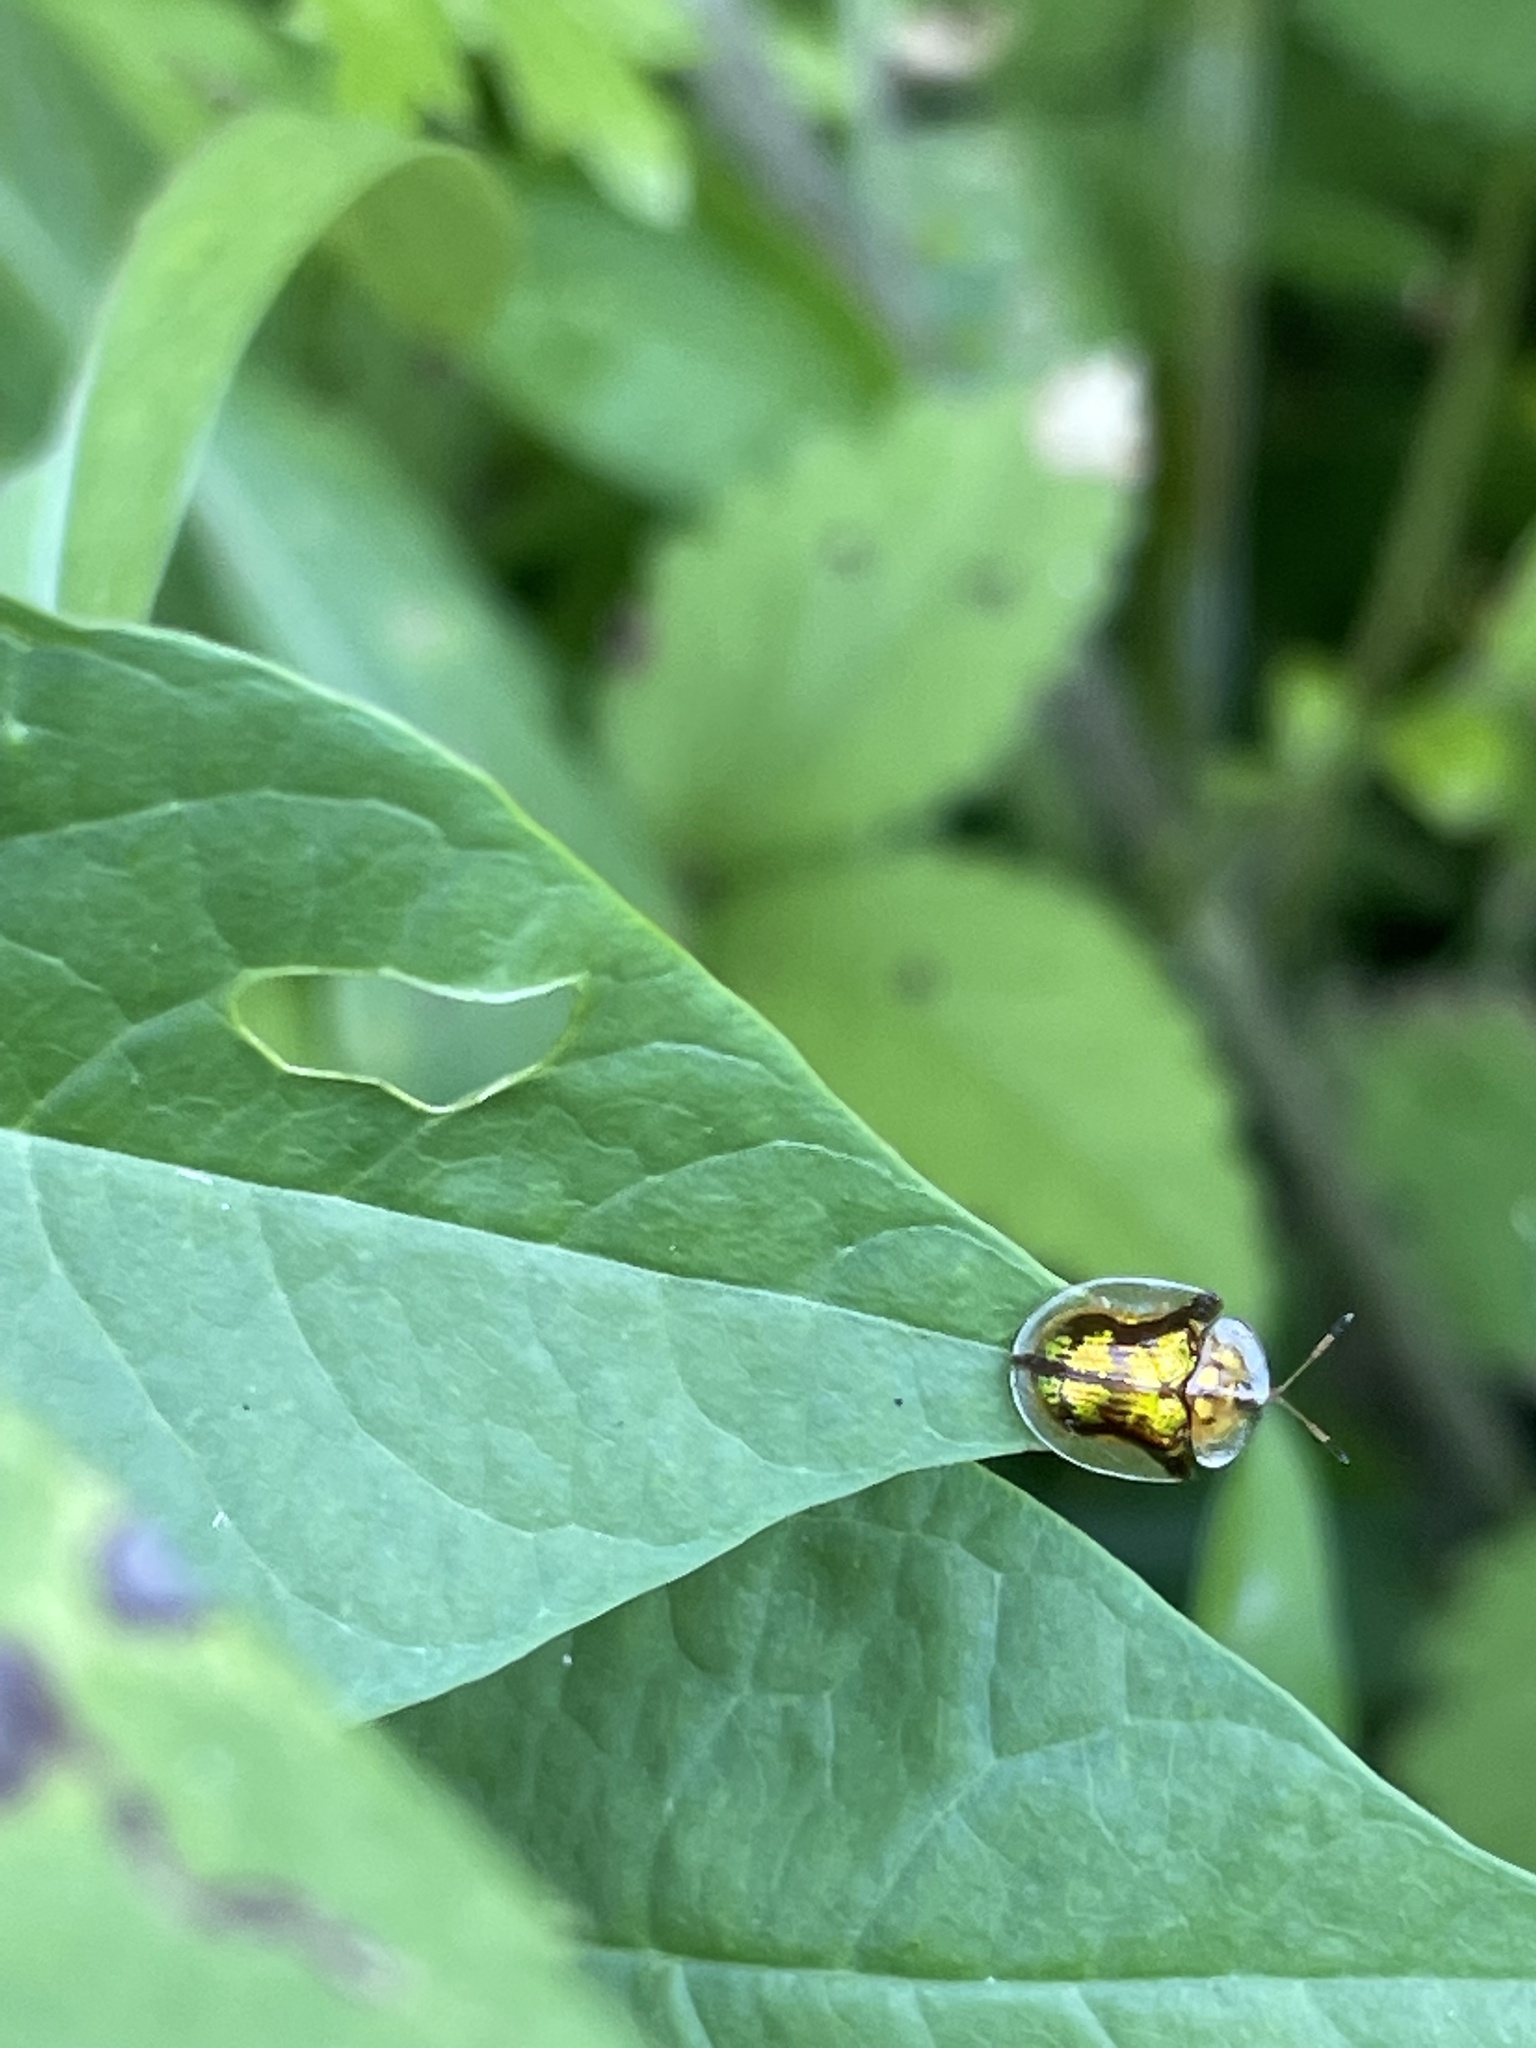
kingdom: Animalia
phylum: Arthropoda
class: Insecta
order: Coleoptera
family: Chrysomelidae
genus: Deloyala
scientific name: Deloyala guttata
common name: Mottled tortoise beetle
